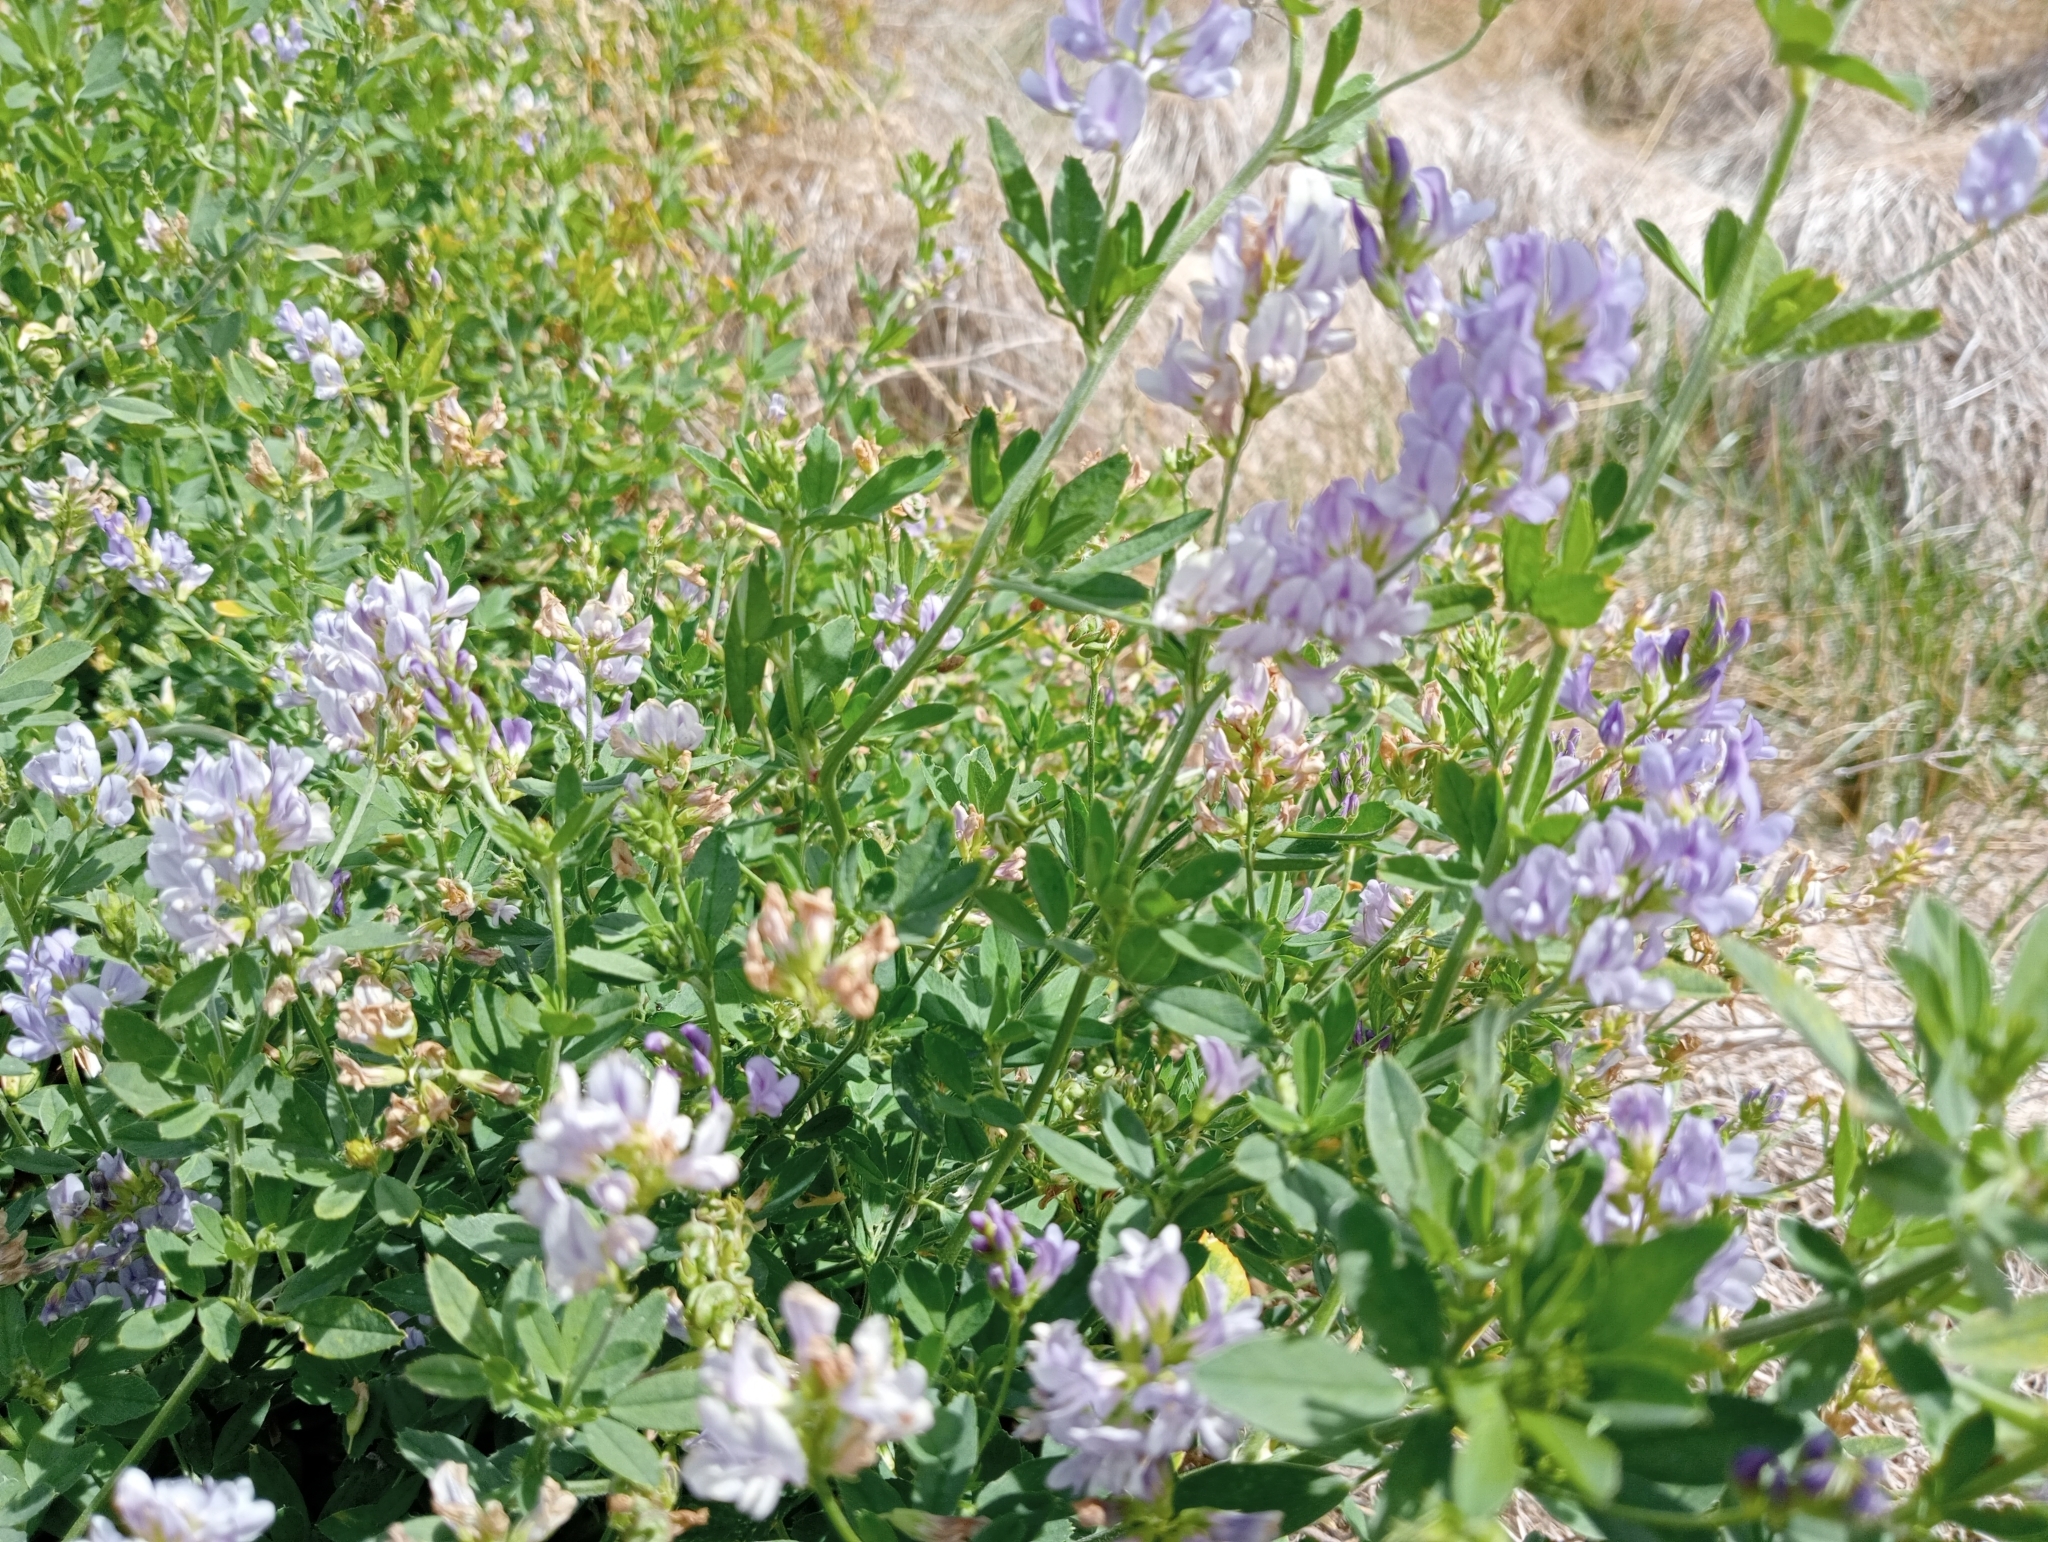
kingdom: Plantae
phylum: Tracheophyta
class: Magnoliopsida
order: Fabales
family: Fabaceae
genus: Medicago
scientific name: Medicago sativa
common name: Alfalfa
